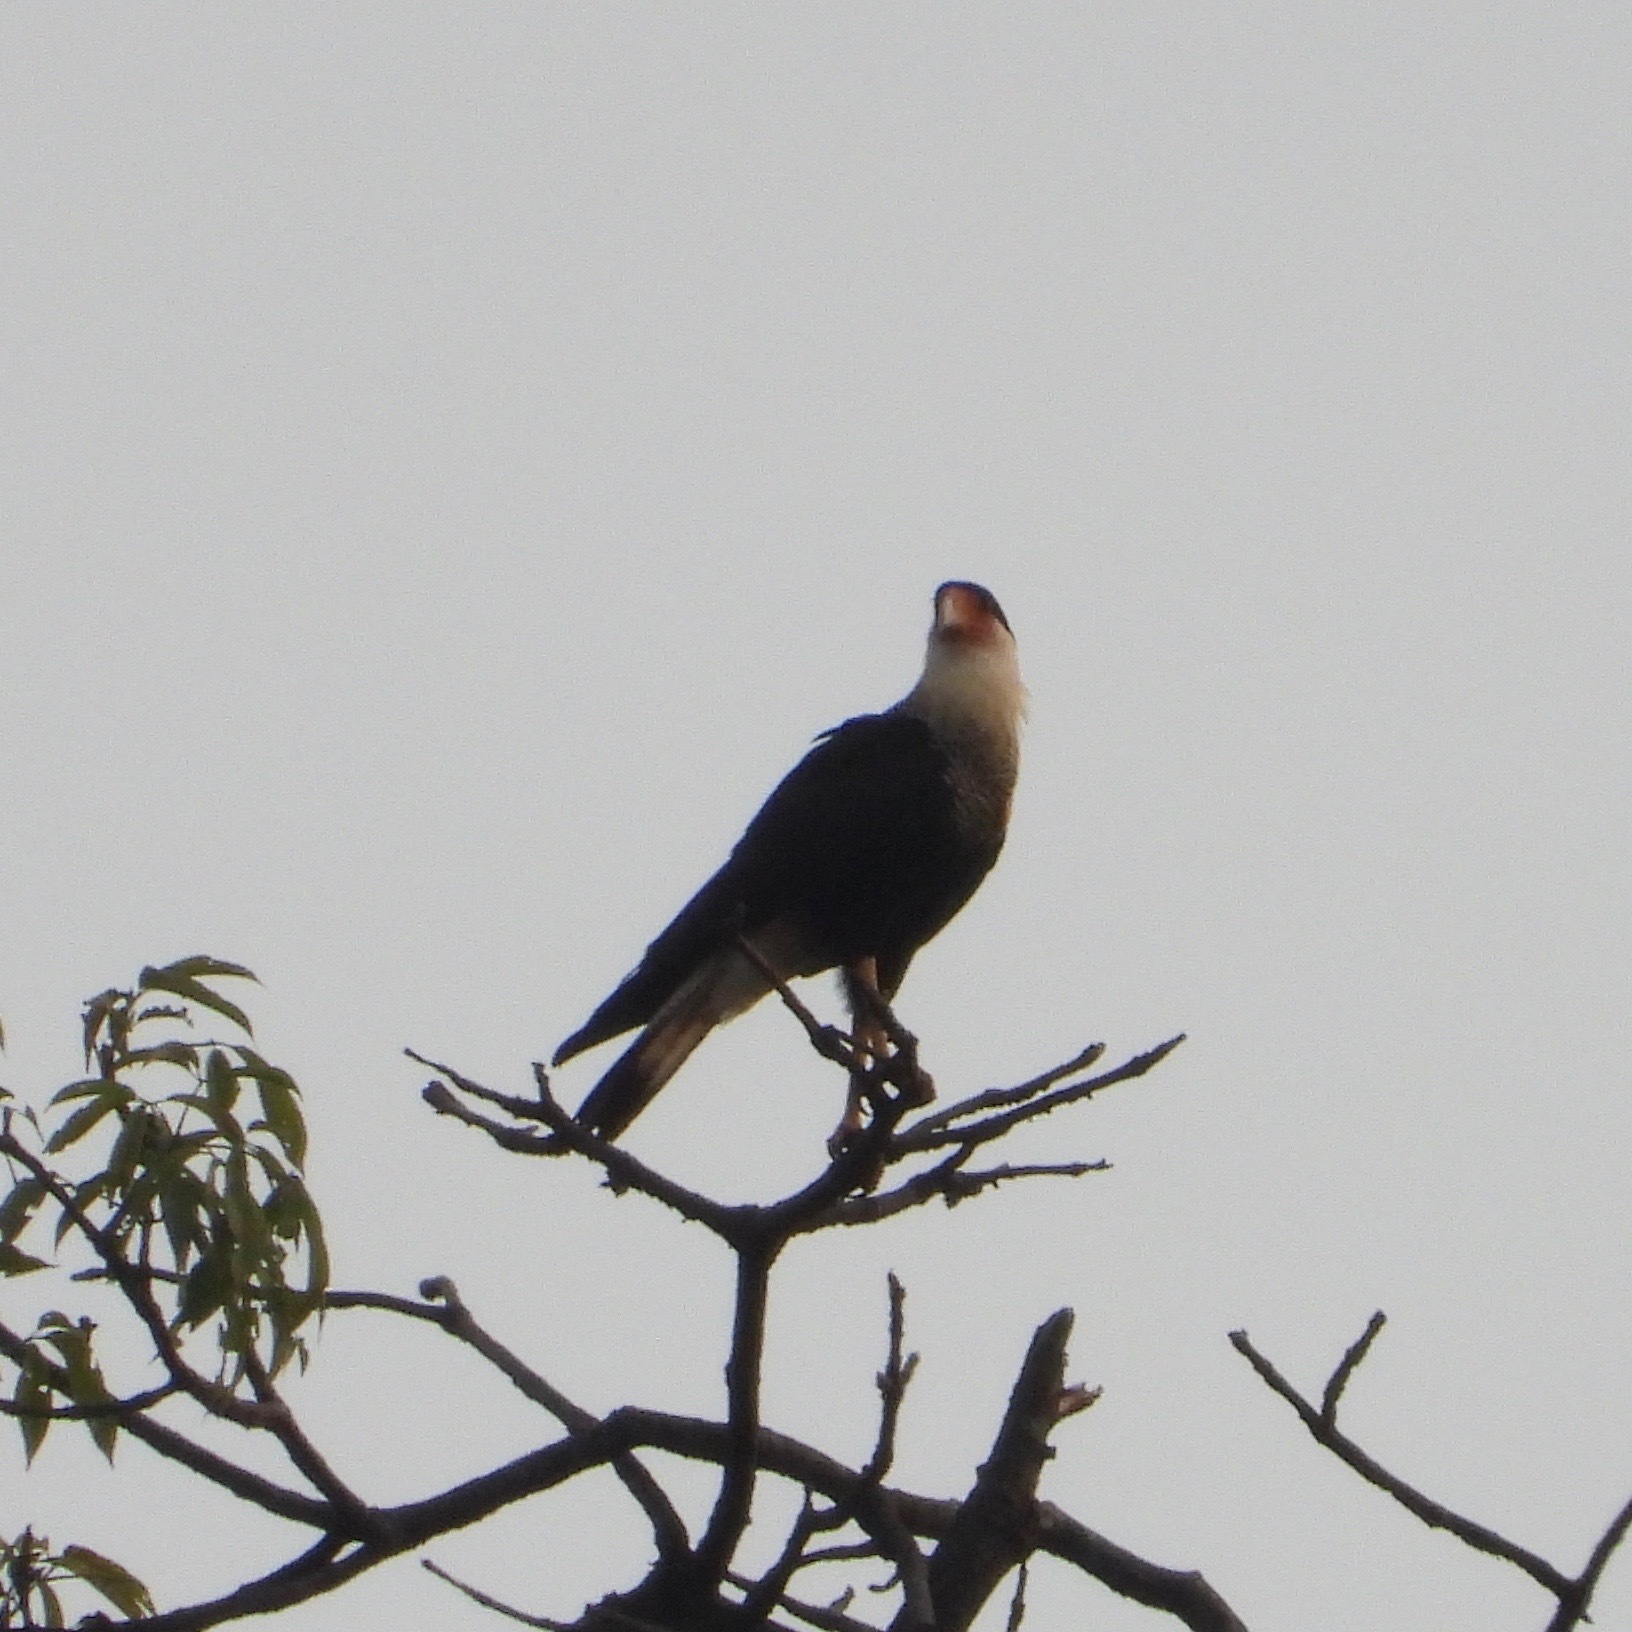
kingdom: Animalia
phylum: Chordata
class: Aves
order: Falconiformes
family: Falconidae
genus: Caracara
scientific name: Caracara plancus
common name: Southern caracara
